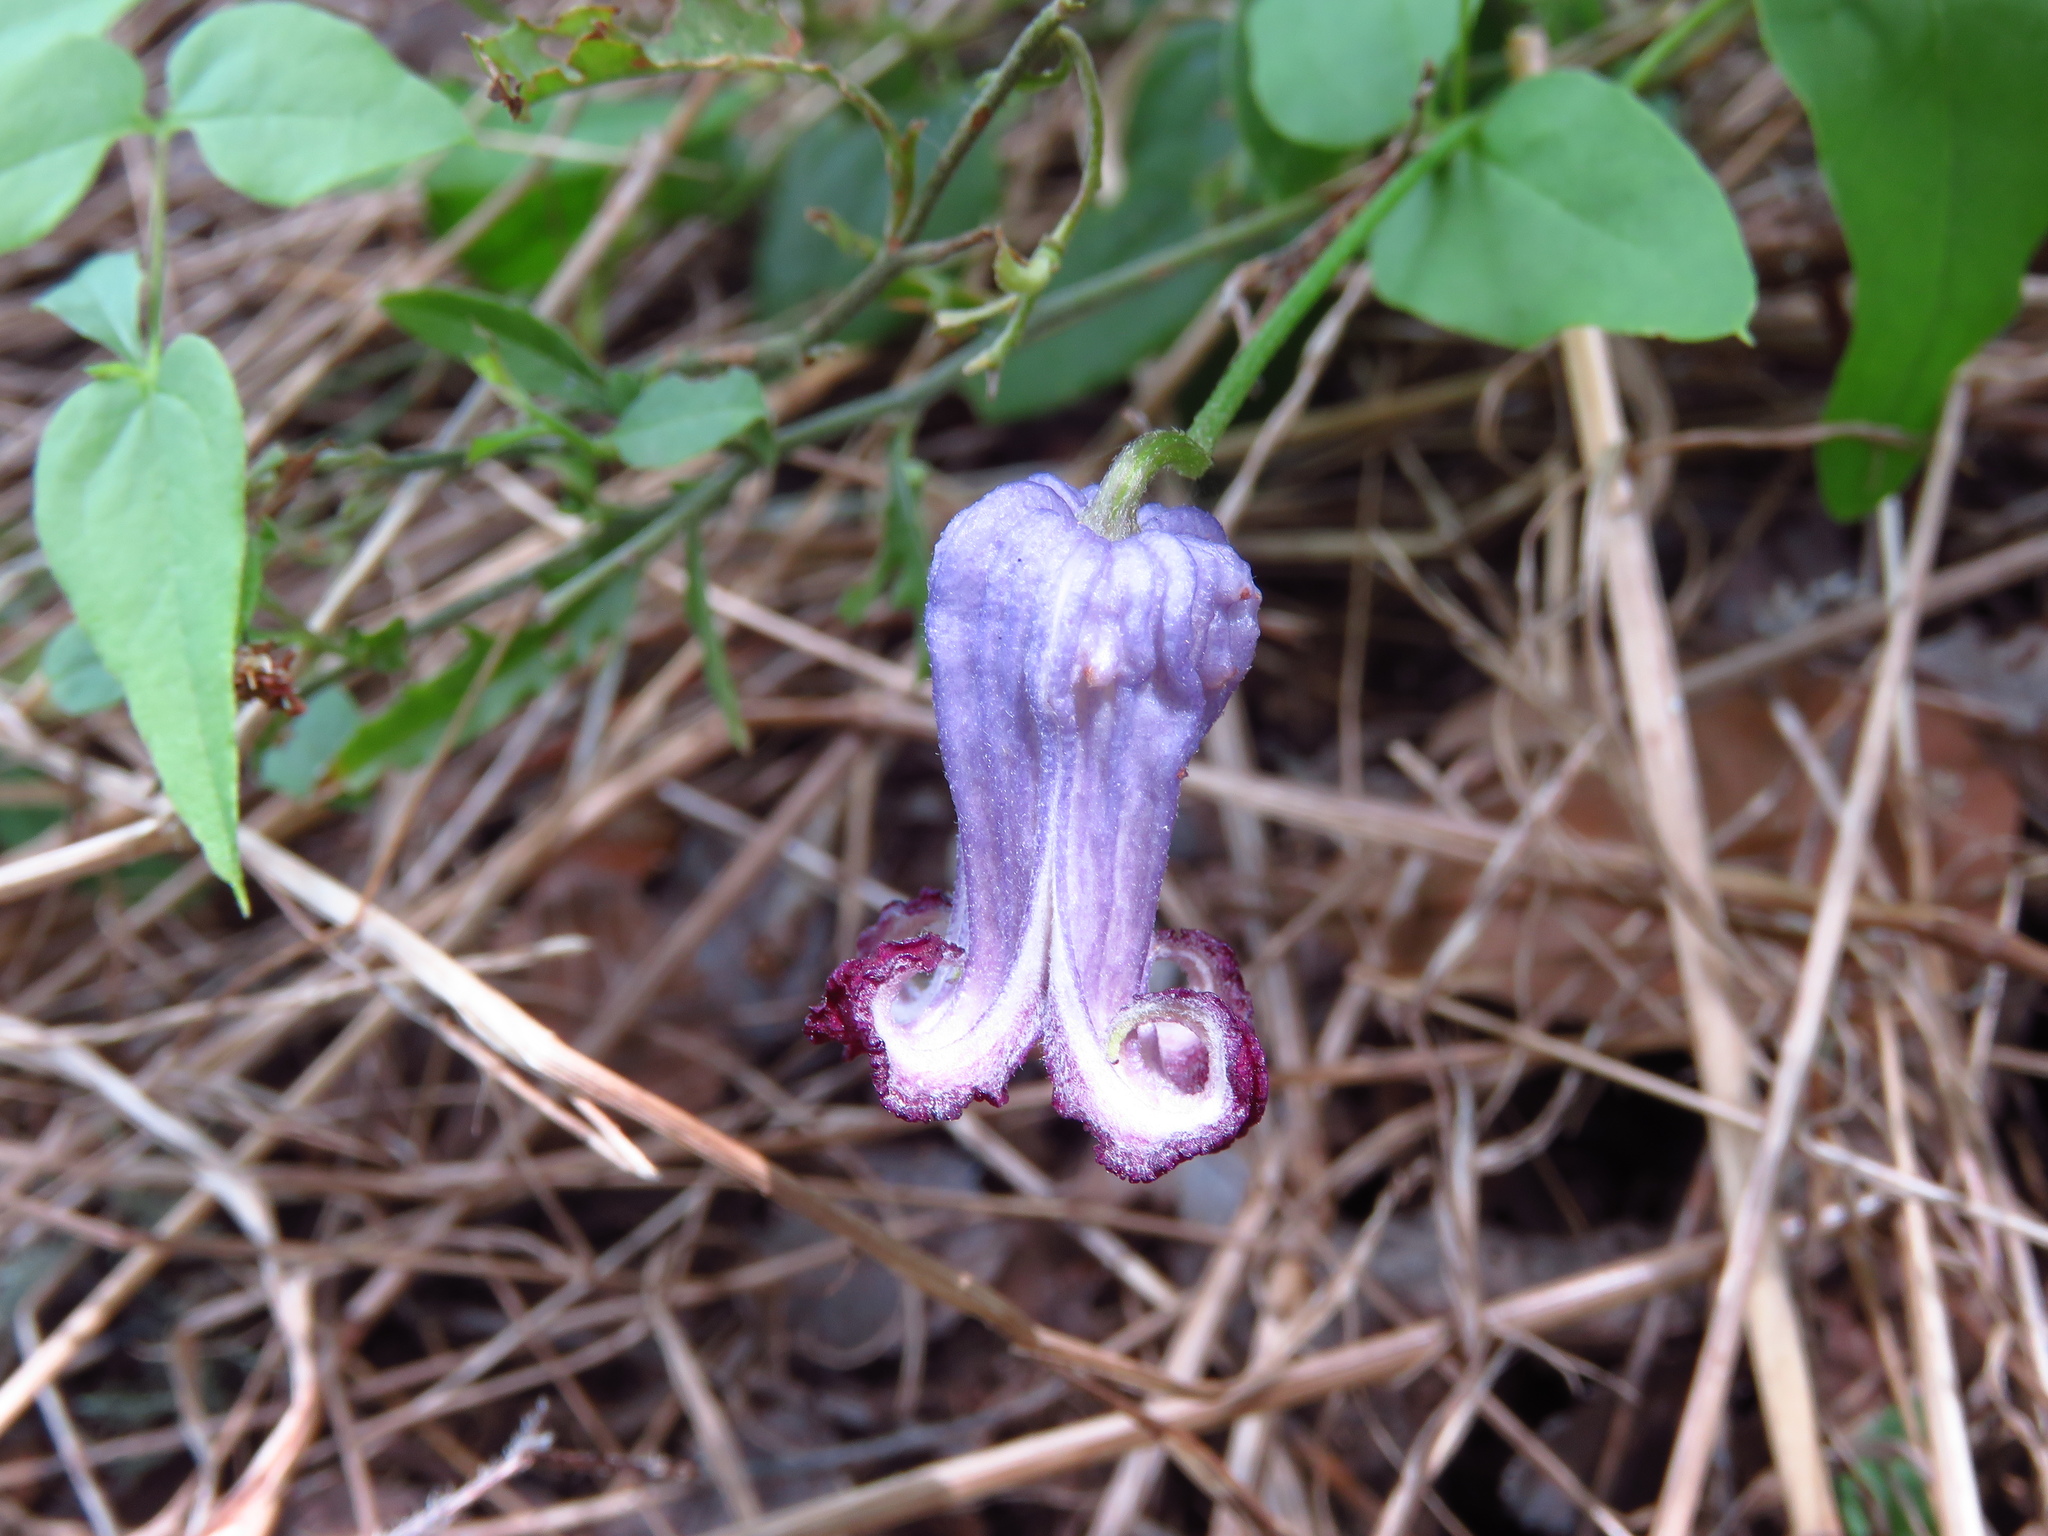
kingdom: Plantae
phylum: Tracheophyta
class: Magnoliopsida
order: Ranunculales
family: Ranunculaceae
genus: Clematis
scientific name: Clematis pitcheri
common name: Bellflower clematis
